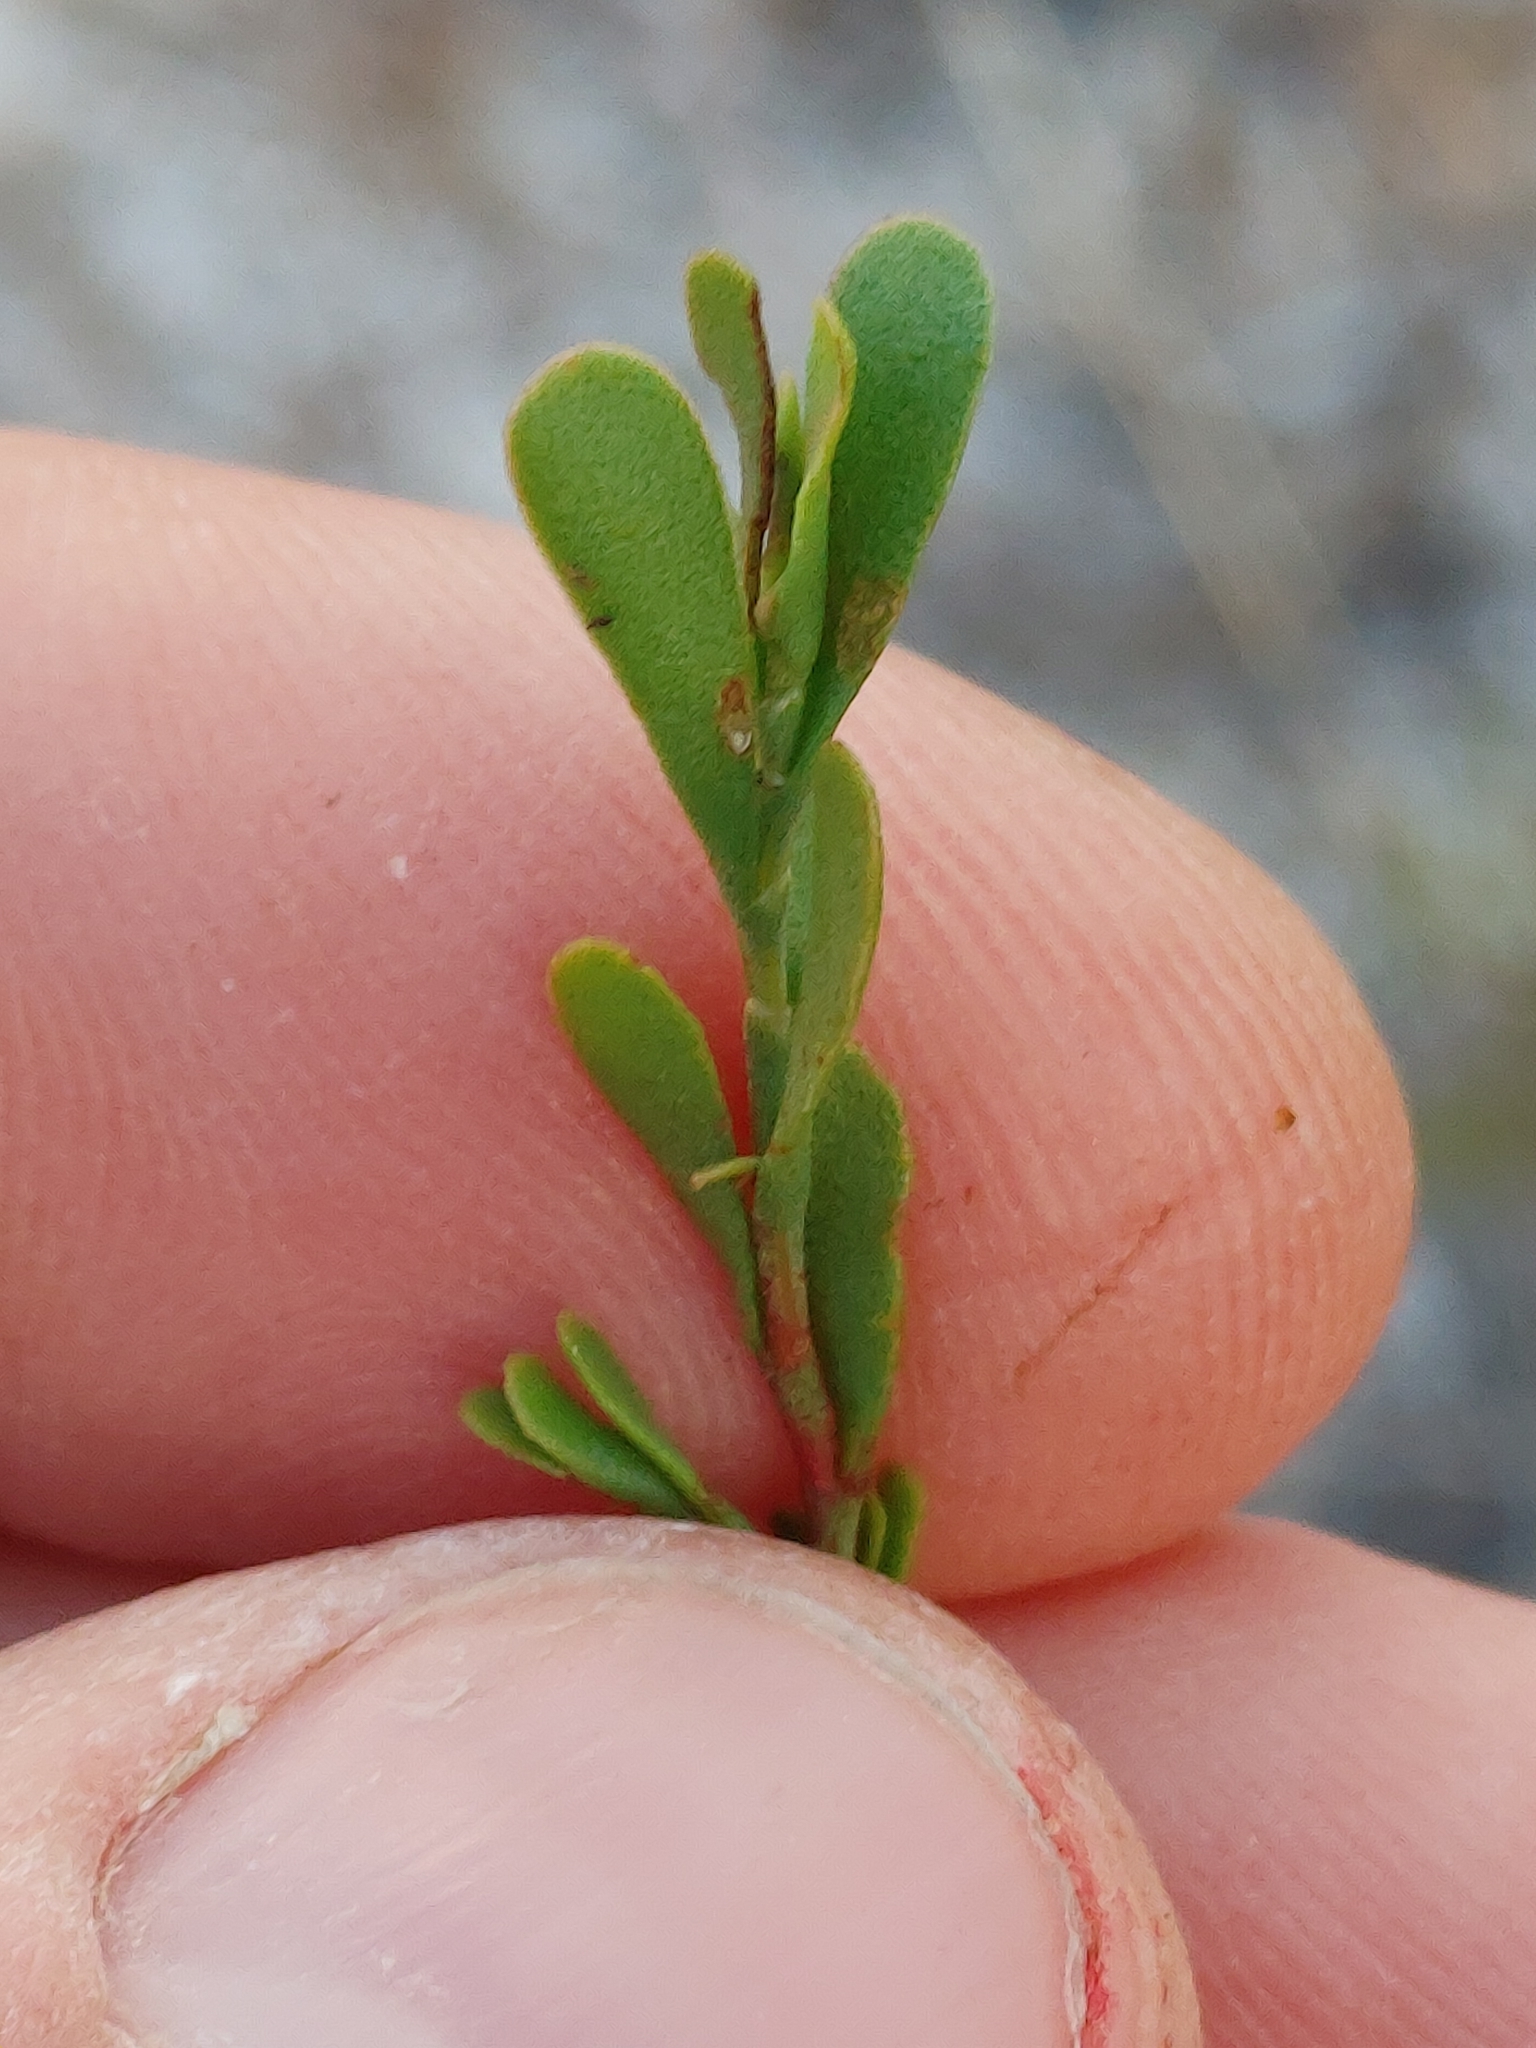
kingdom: Plantae
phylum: Tracheophyta
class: Magnoliopsida
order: Caryophyllales
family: Polygonaceae
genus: Polygonella
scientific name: Polygonella polygama
